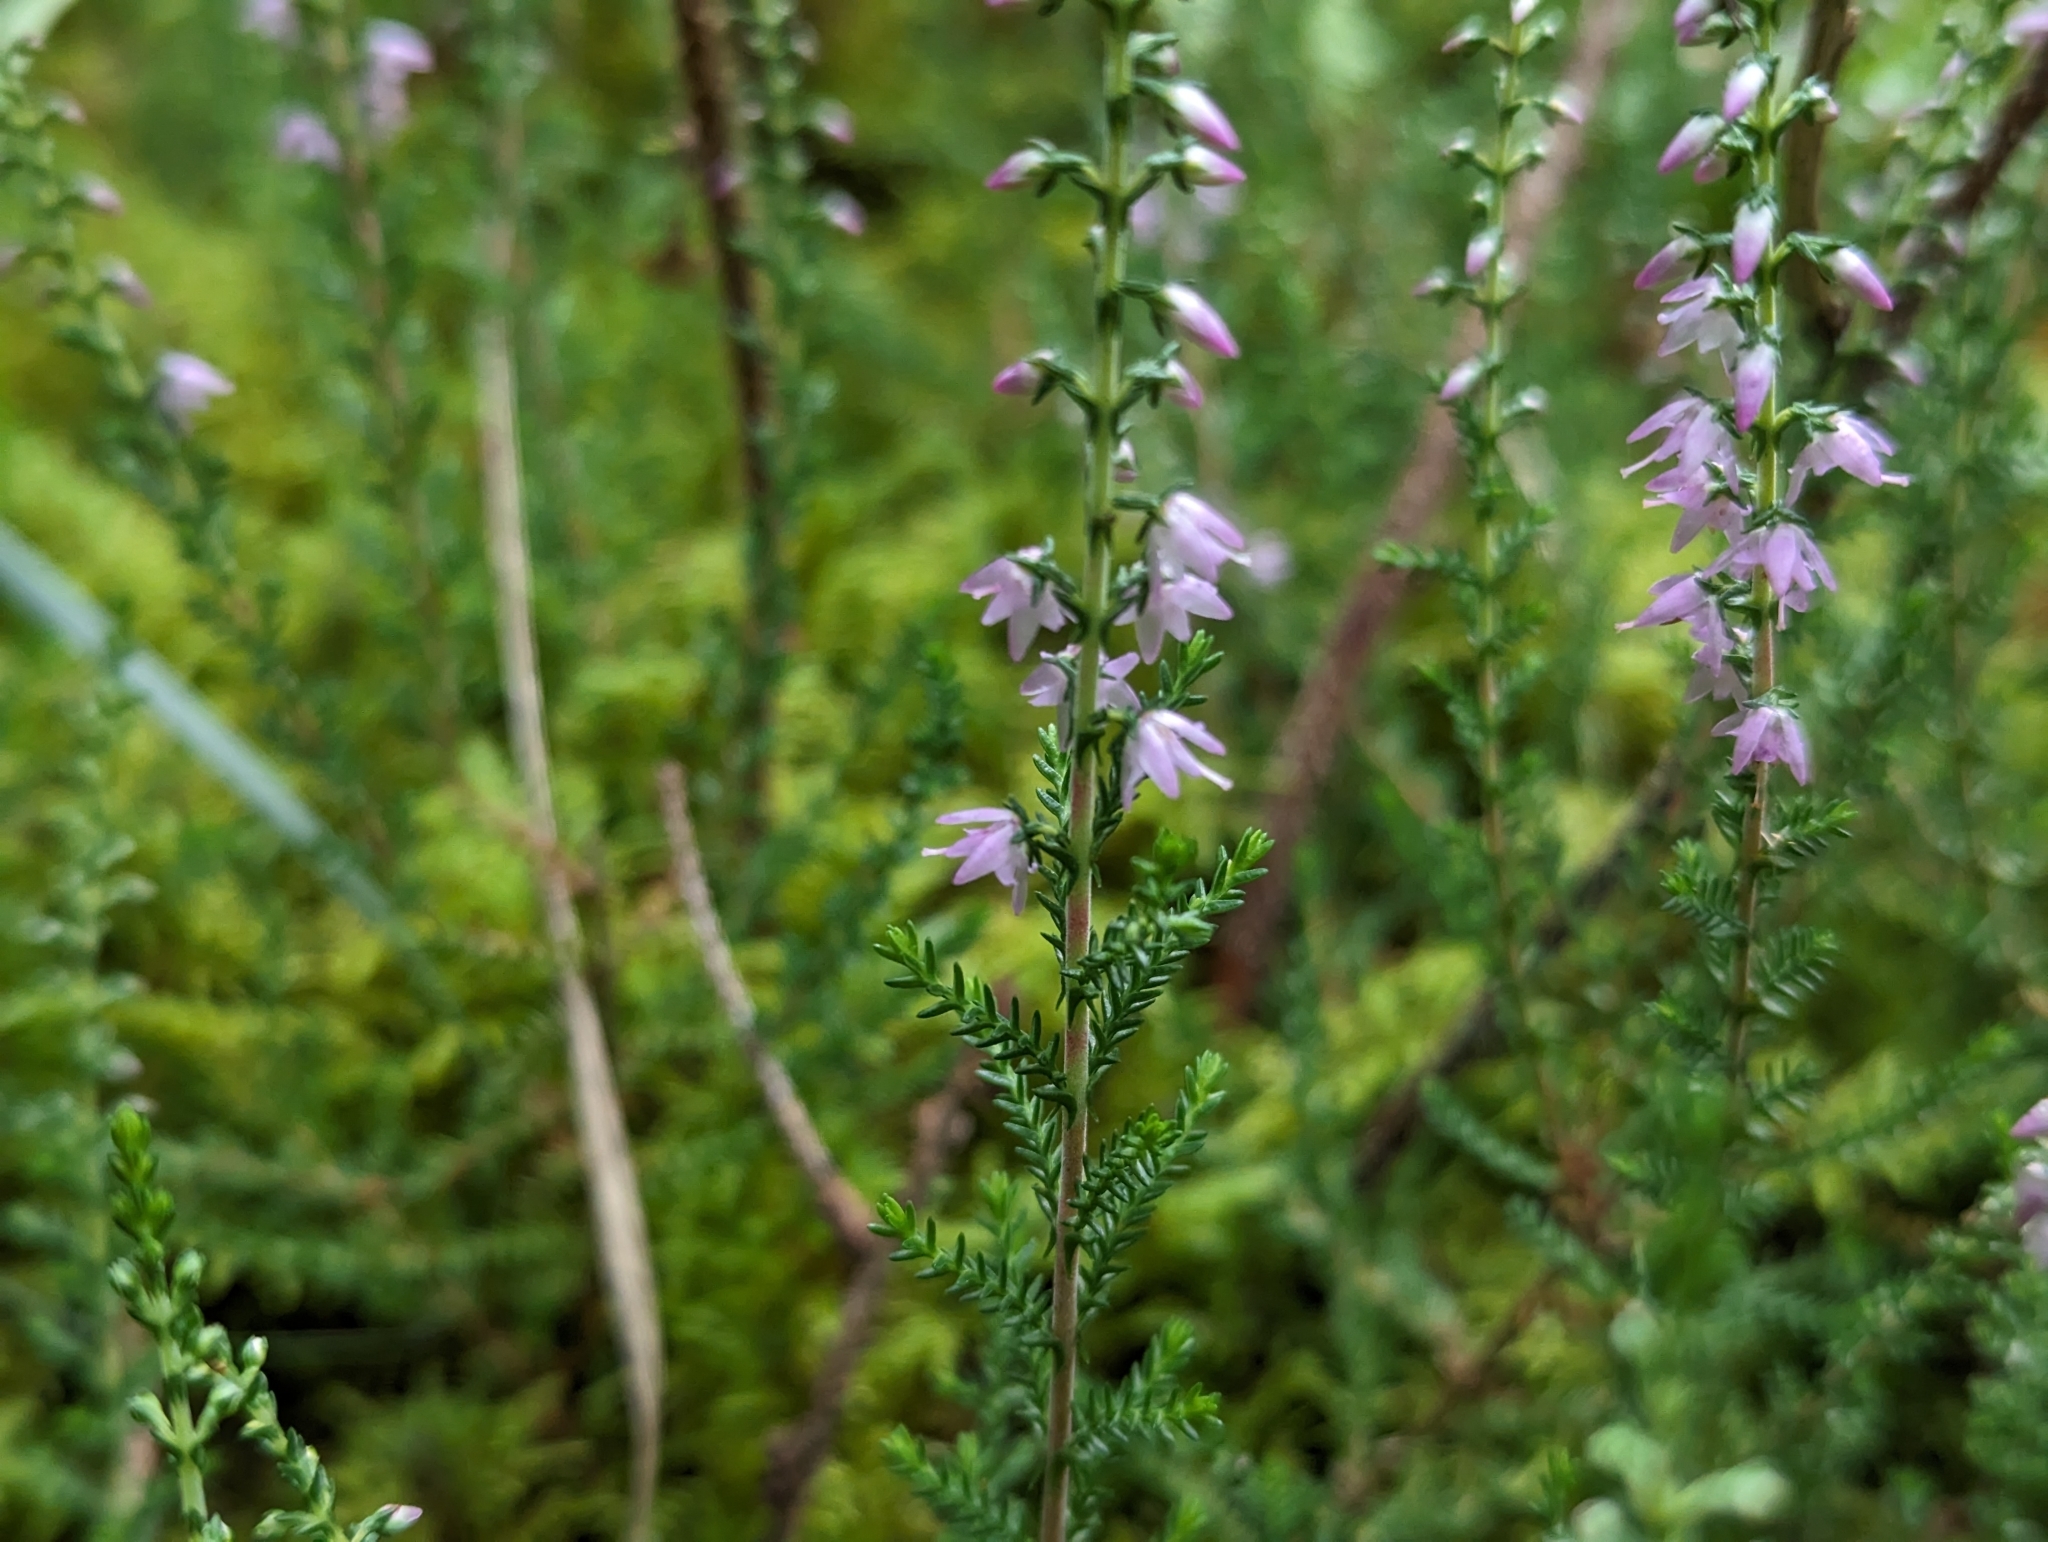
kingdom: Plantae
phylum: Tracheophyta
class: Magnoliopsida
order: Ericales
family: Ericaceae
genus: Calluna
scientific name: Calluna vulgaris
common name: Heather
